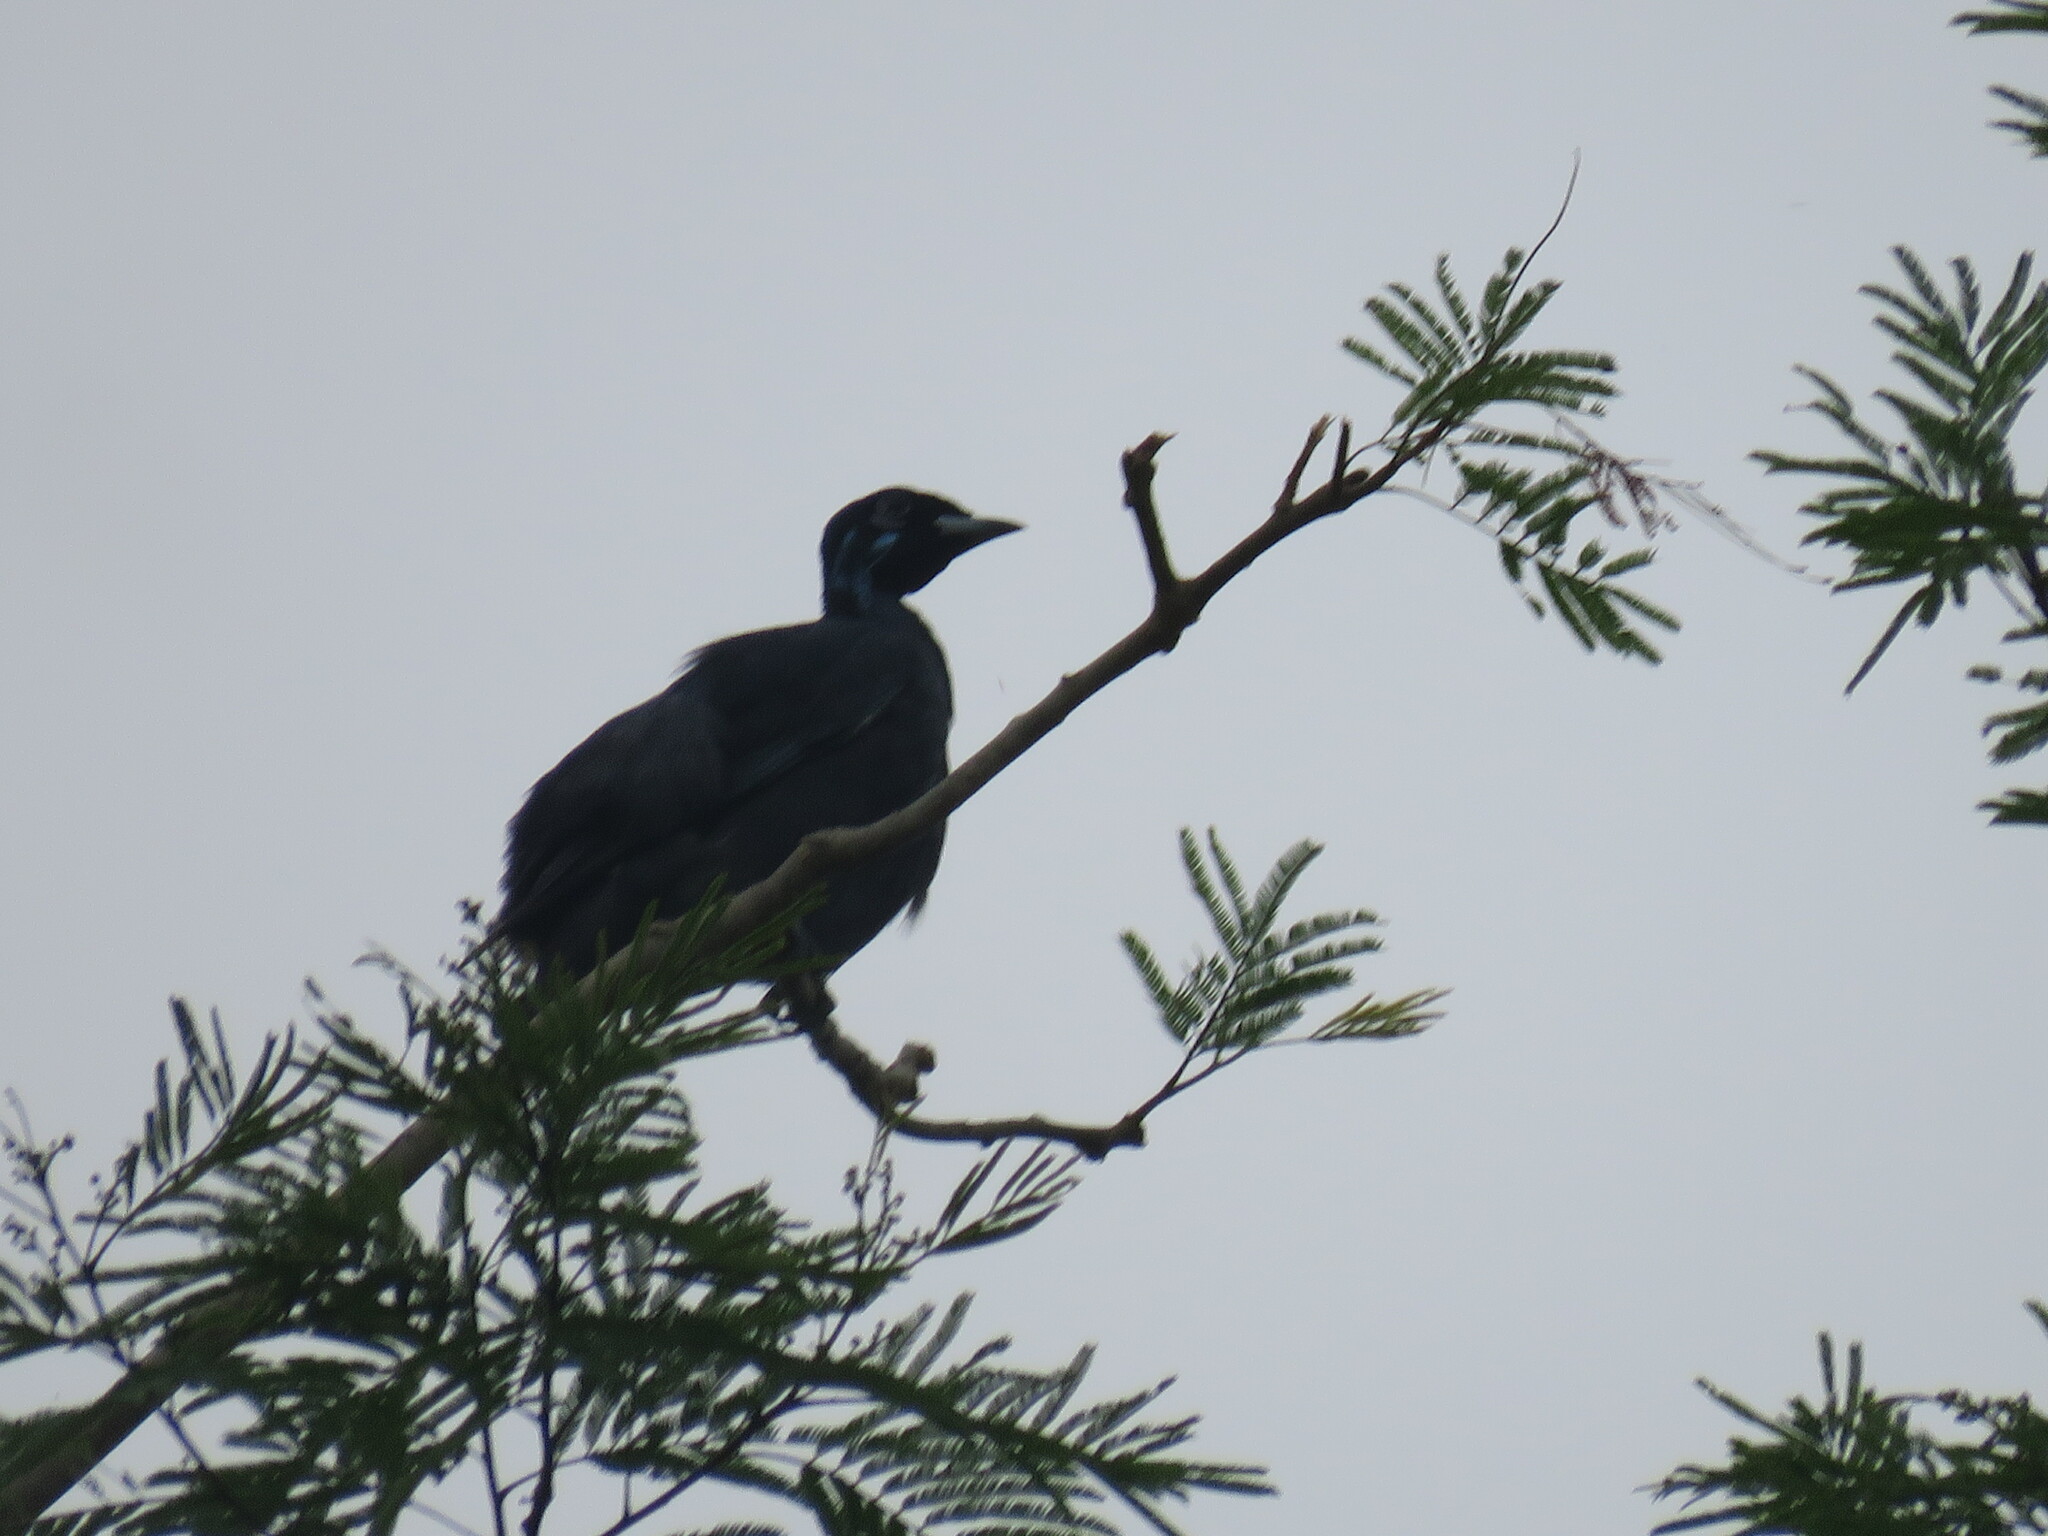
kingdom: Animalia
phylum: Chordata
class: Aves
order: Passeriformes
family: Cotingidae
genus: Gymnoderus
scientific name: Gymnoderus foetidus
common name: Bare-necked fruitcrow
